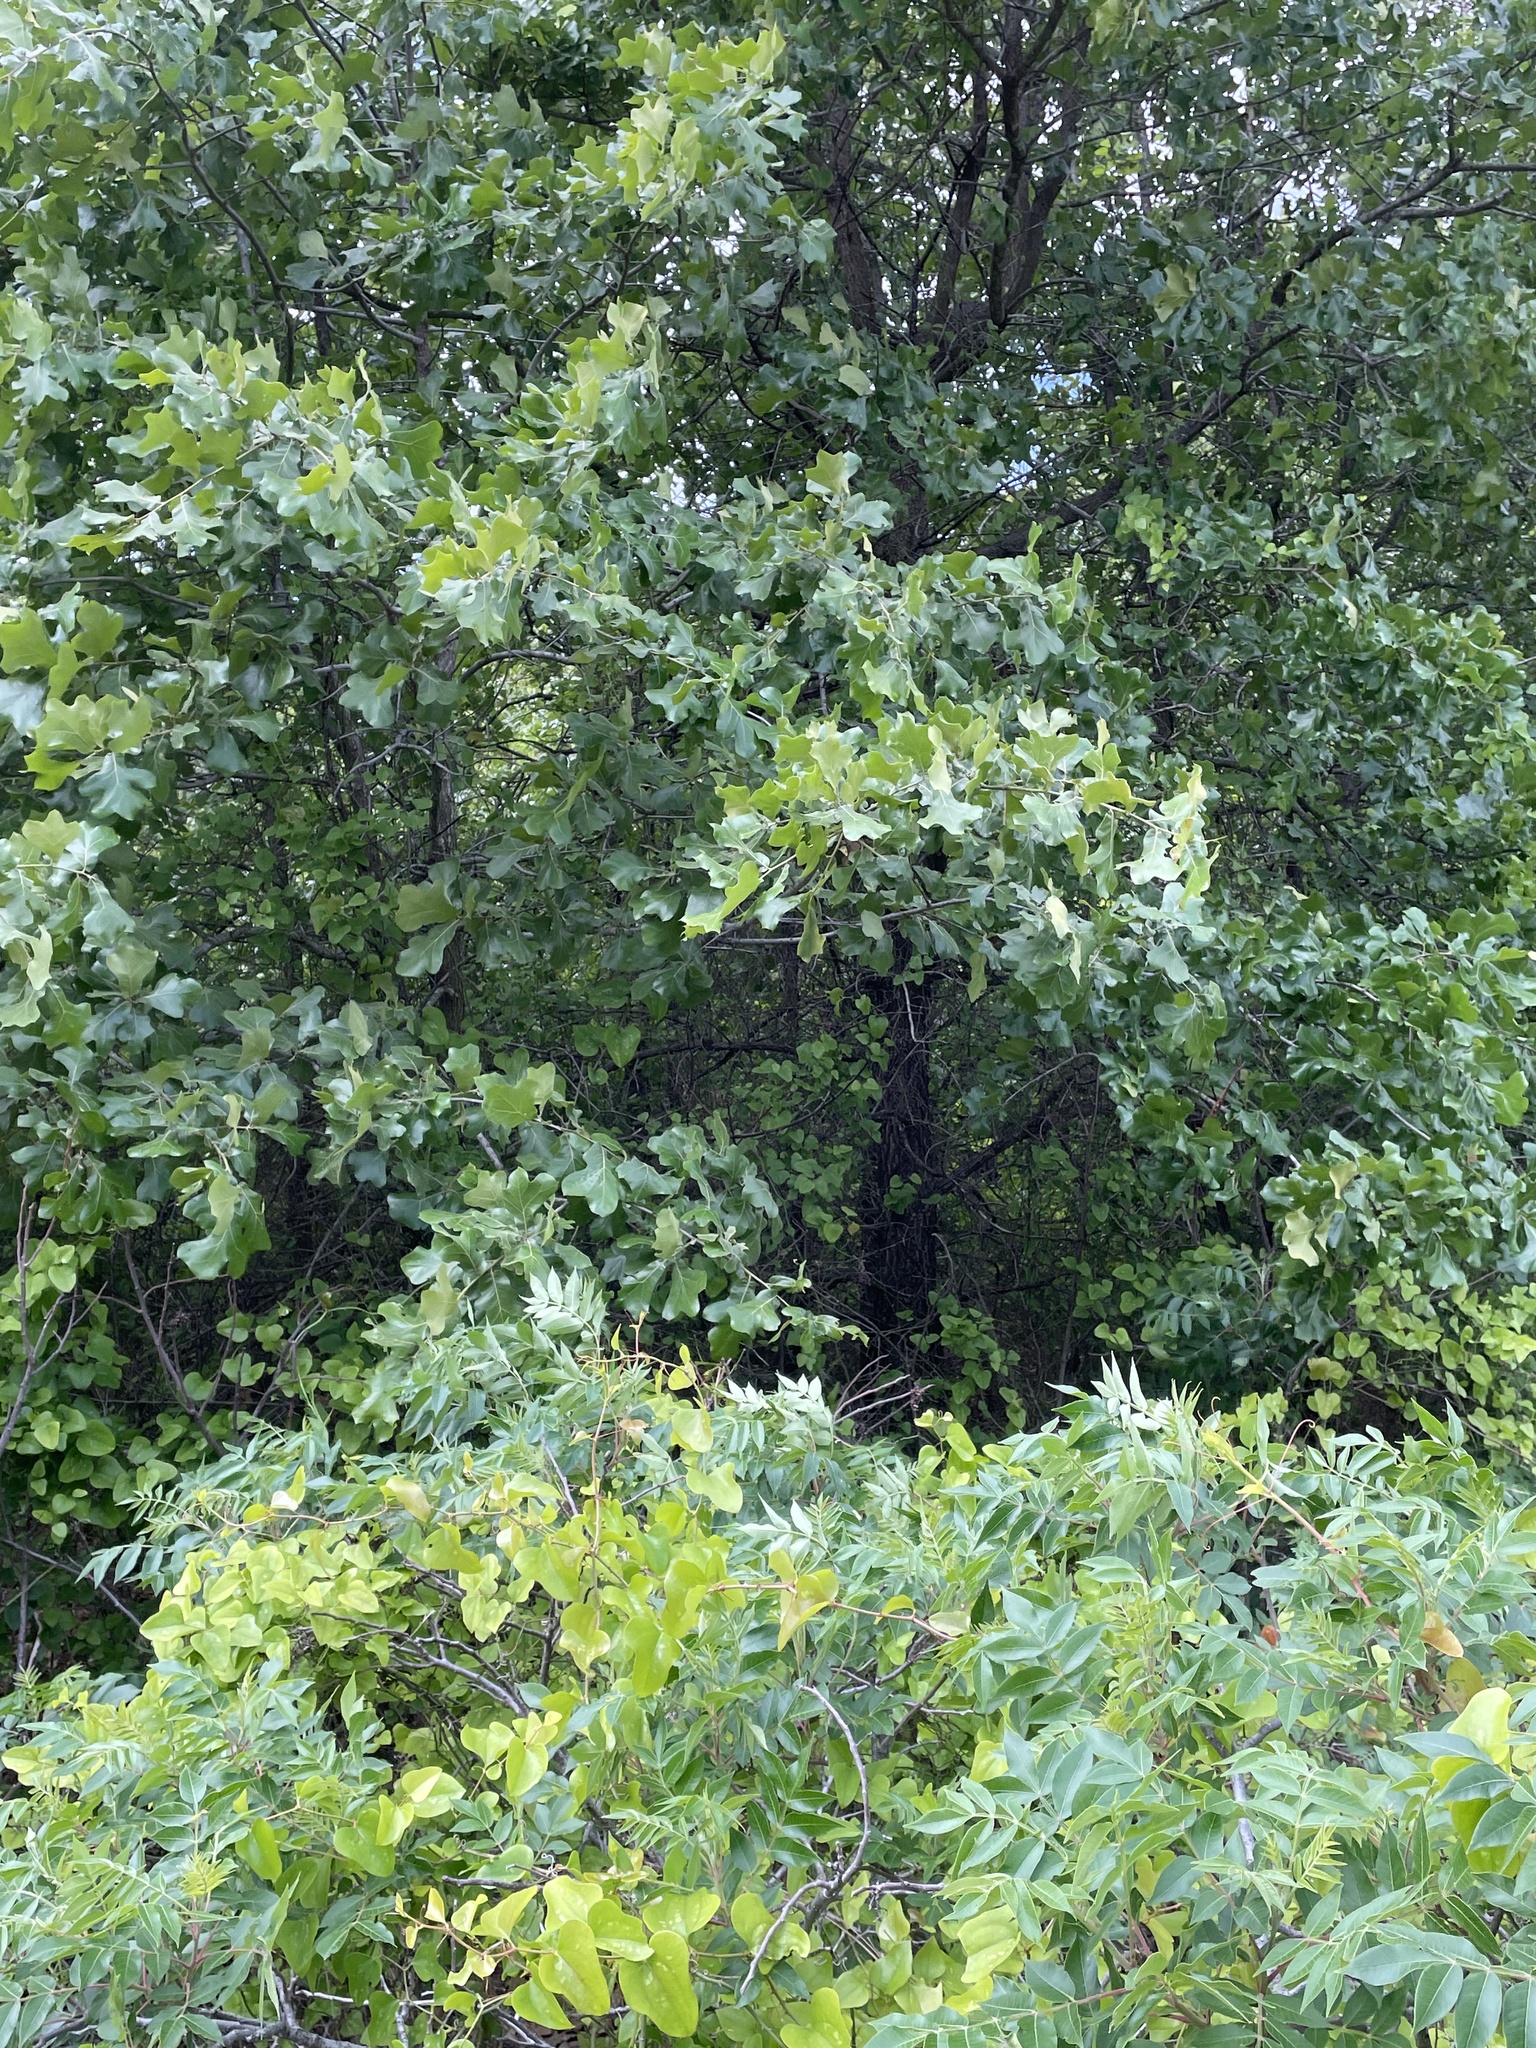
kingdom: Animalia
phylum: Chordata
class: Aves
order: Passeriformes
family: Vireonidae
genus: Vireo
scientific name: Vireo griseus
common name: White-eyed vireo
